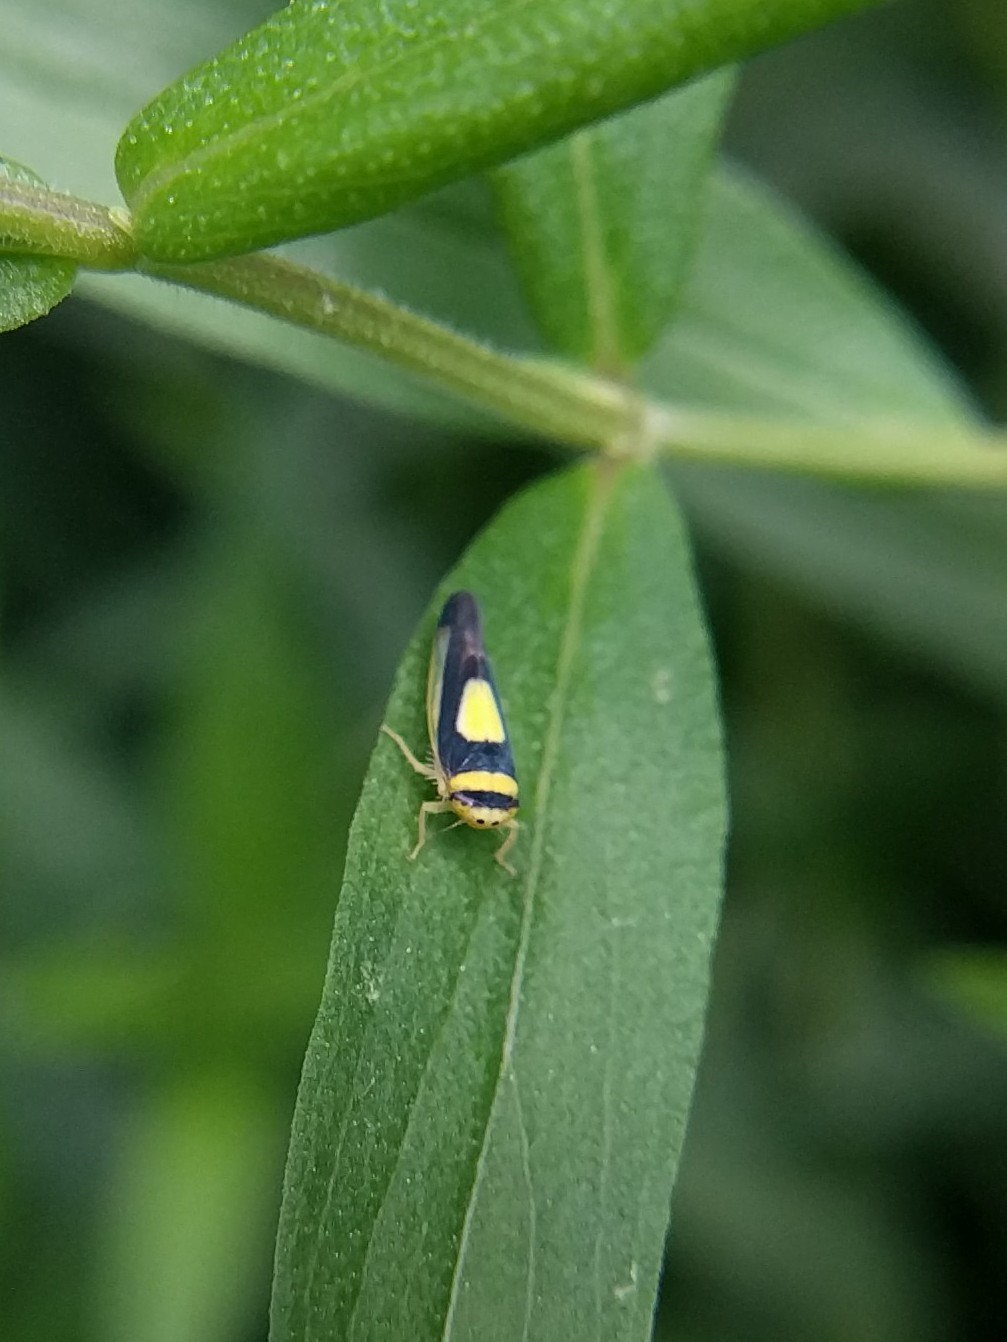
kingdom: Animalia
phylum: Arthropoda
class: Insecta
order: Hemiptera
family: Cicadellidae
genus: Colladonus
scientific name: Colladonus clitellarius
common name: The saddleback leafhopper
